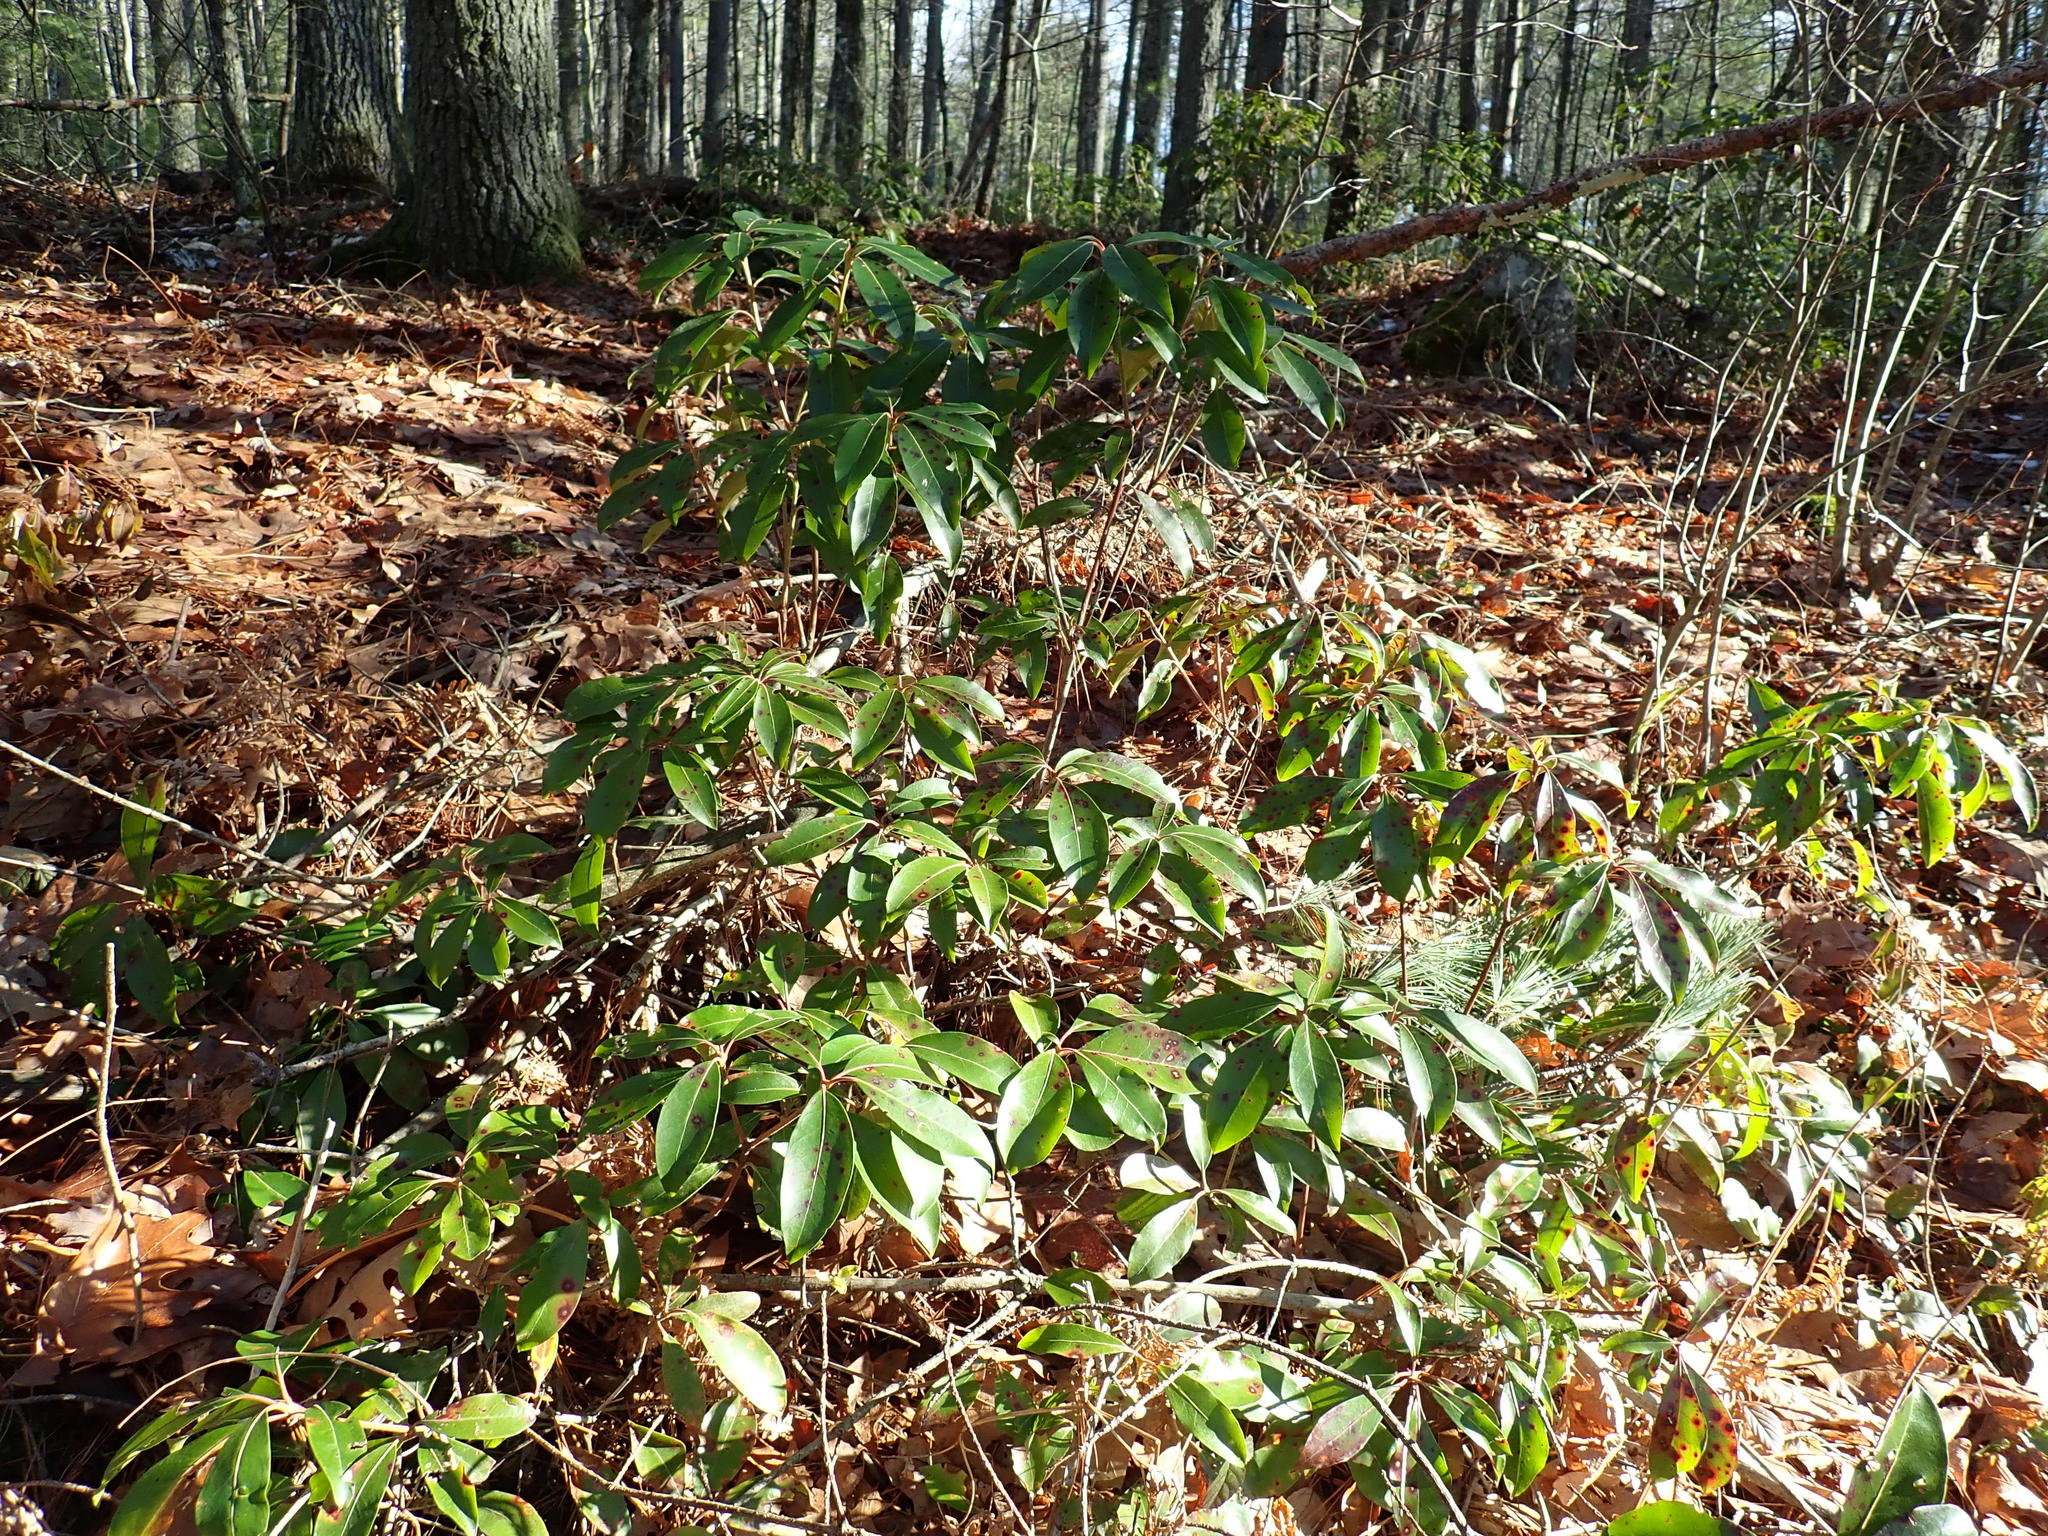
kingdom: Plantae
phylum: Tracheophyta
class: Magnoliopsida
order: Ericales
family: Ericaceae
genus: Kalmia
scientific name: Kalmia latifolia
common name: Mountain-laurel
